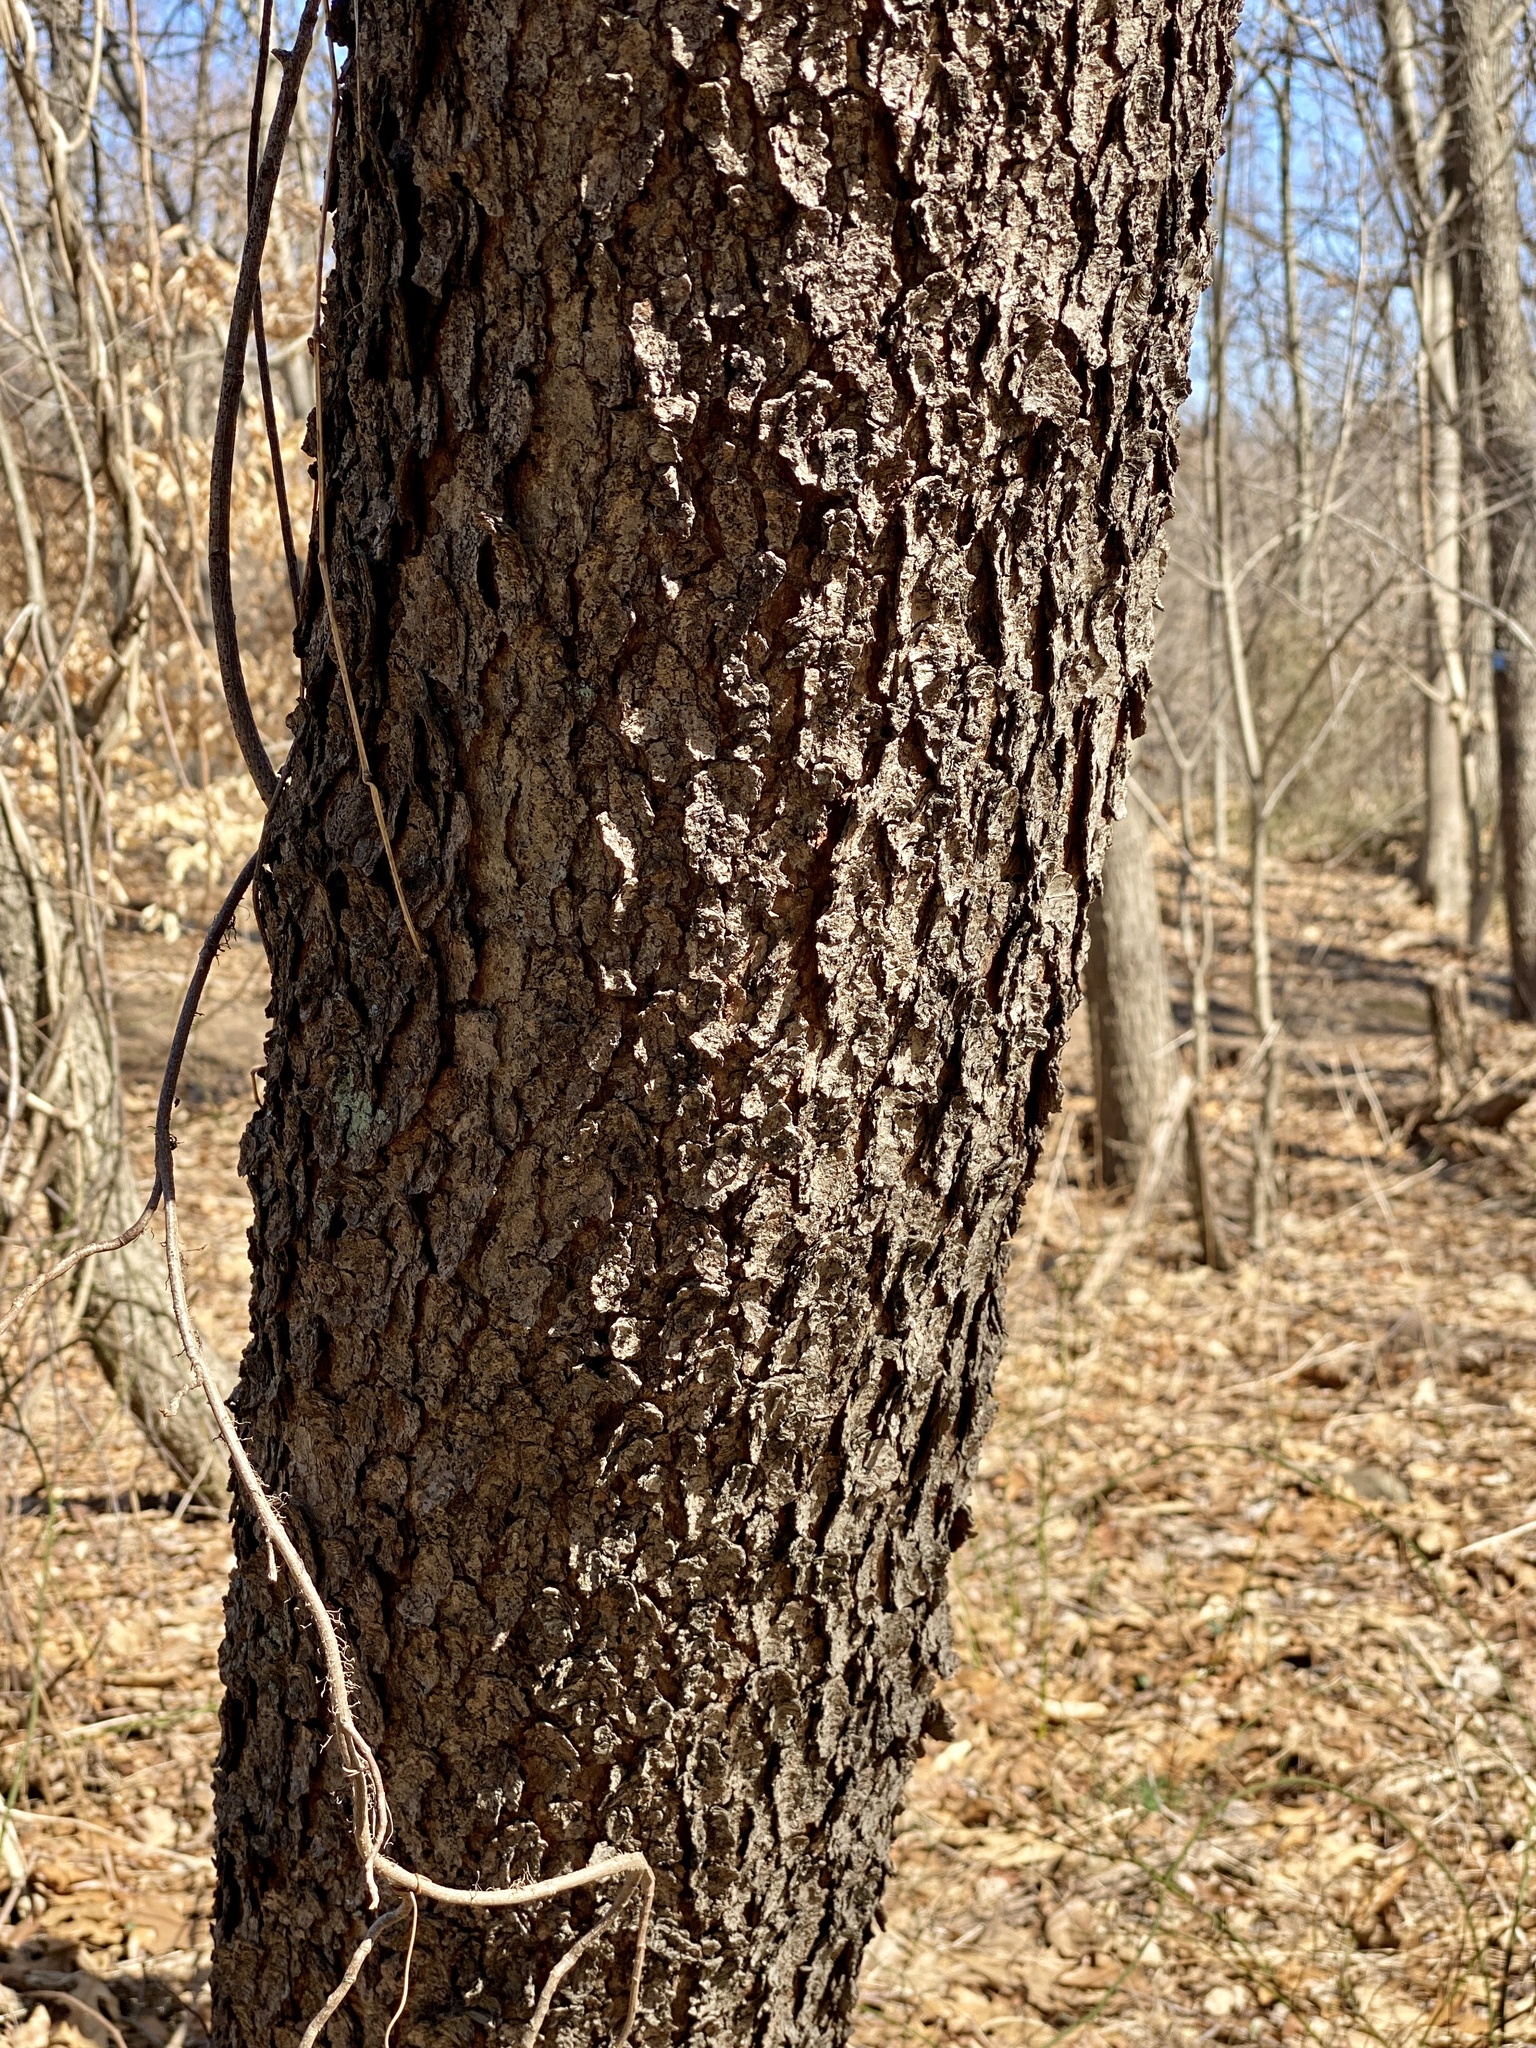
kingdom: Plantae
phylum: Tracheophyta
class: Magnoliopsida
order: Rosales
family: Rosaceae
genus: Prunus
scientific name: Prunus serotina
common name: Black cherry
